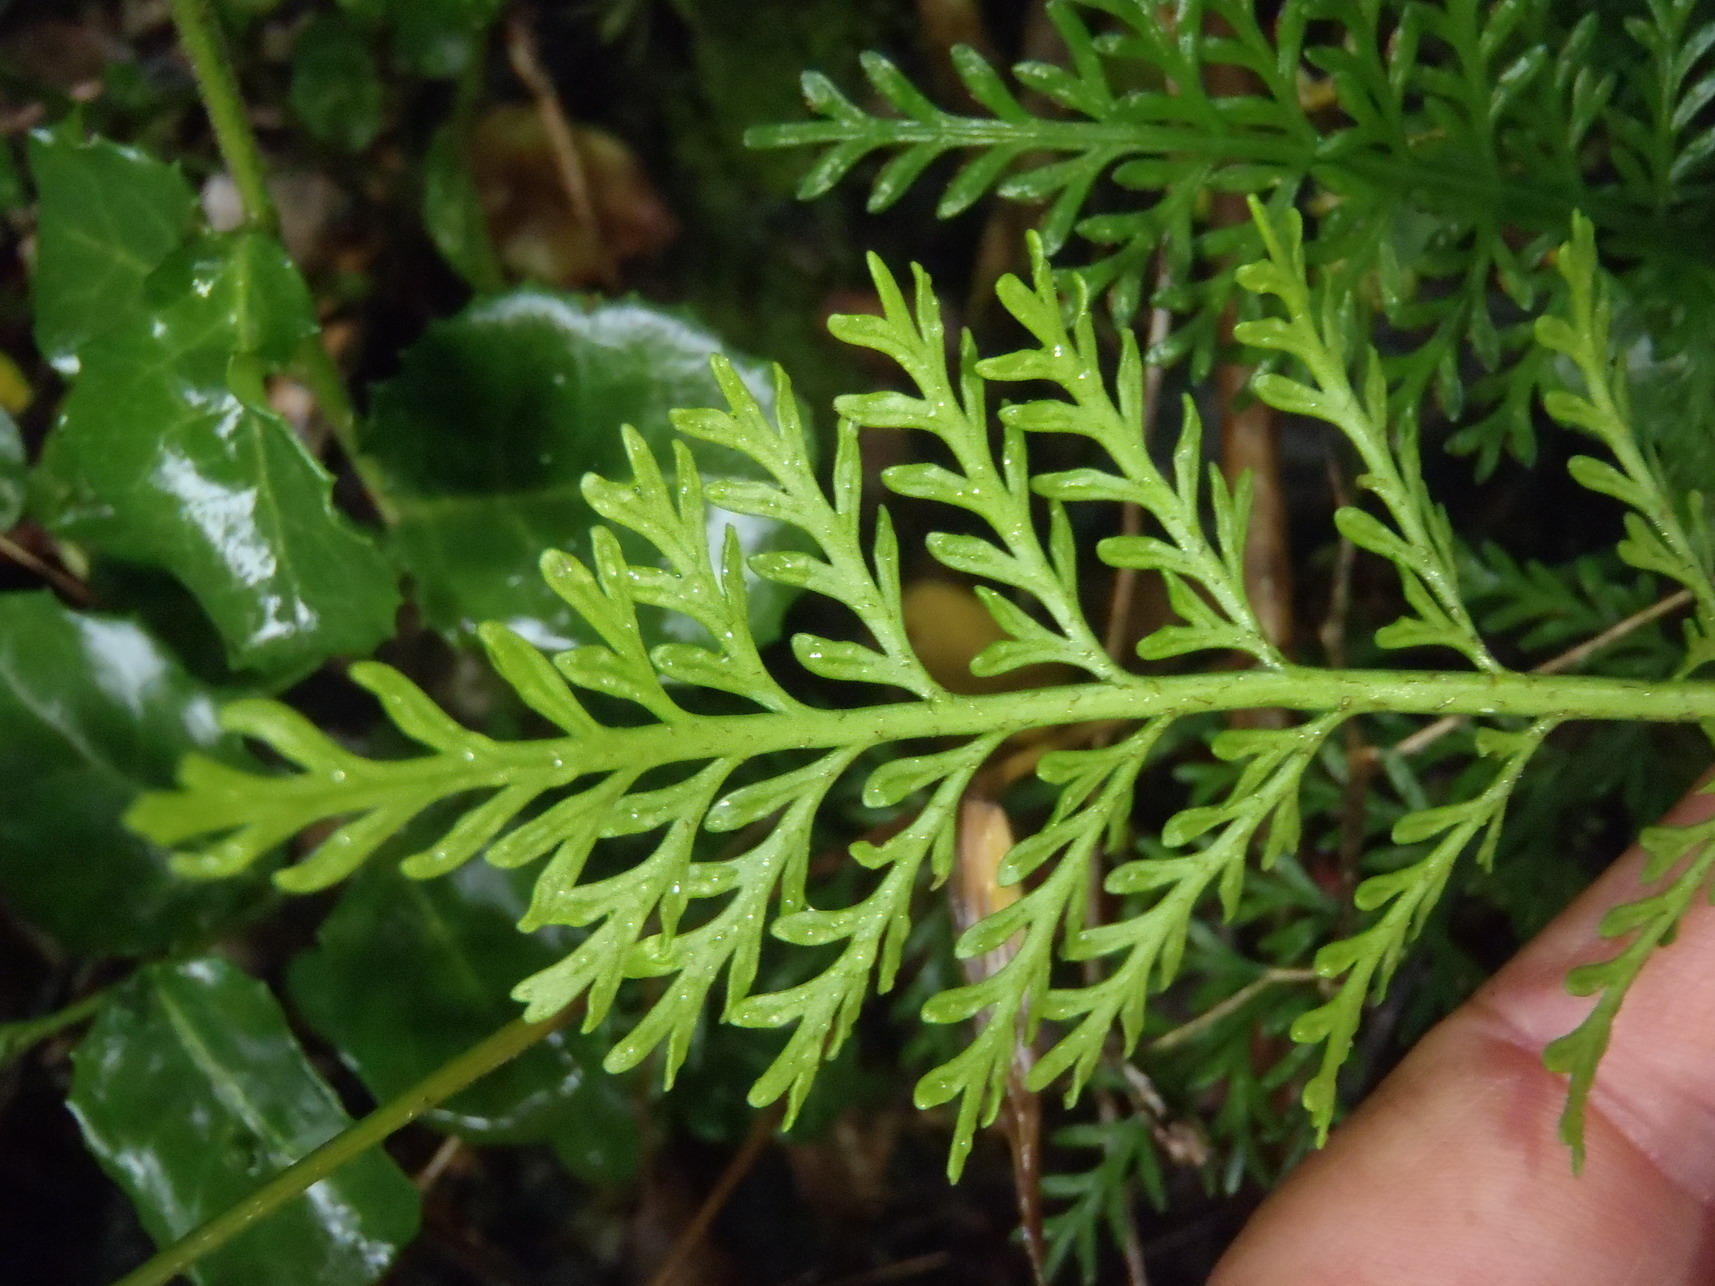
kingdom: Plantae
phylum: Tracheophyta
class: Polypodiopsida
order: Polypodiales
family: Aspleniaceae
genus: Asplenium
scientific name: Asplenium rutifolium
